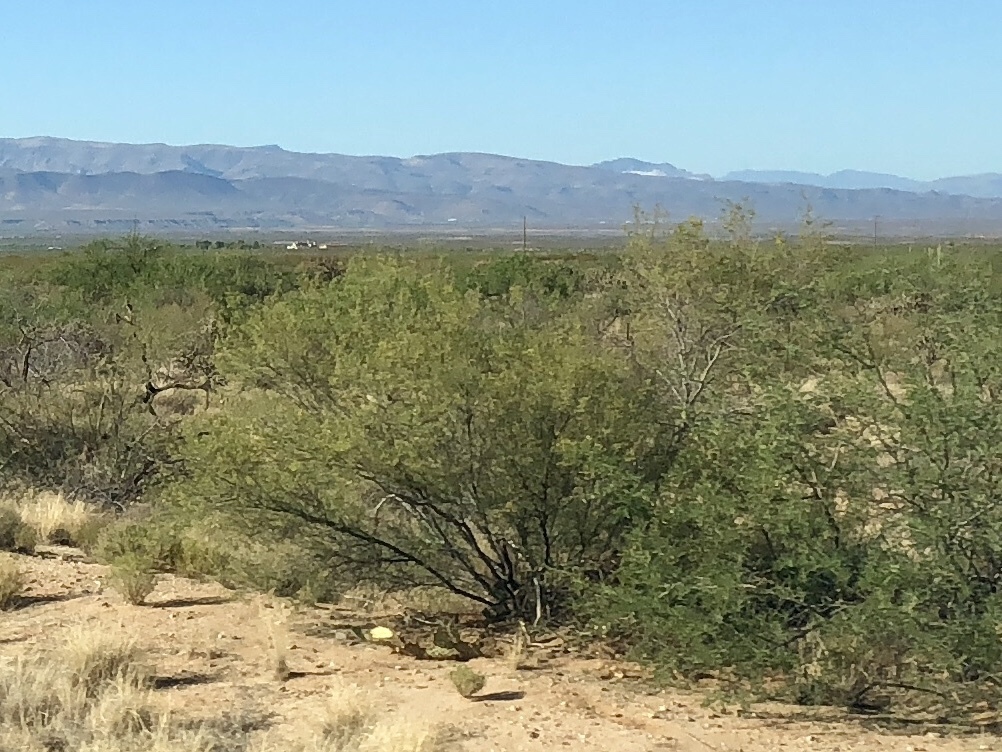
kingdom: Plantae
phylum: Tracheophyta
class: Magnoliopsida
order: Zygophyllales
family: Zygophyllaceae
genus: Larrea
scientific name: Larrea tridentata
